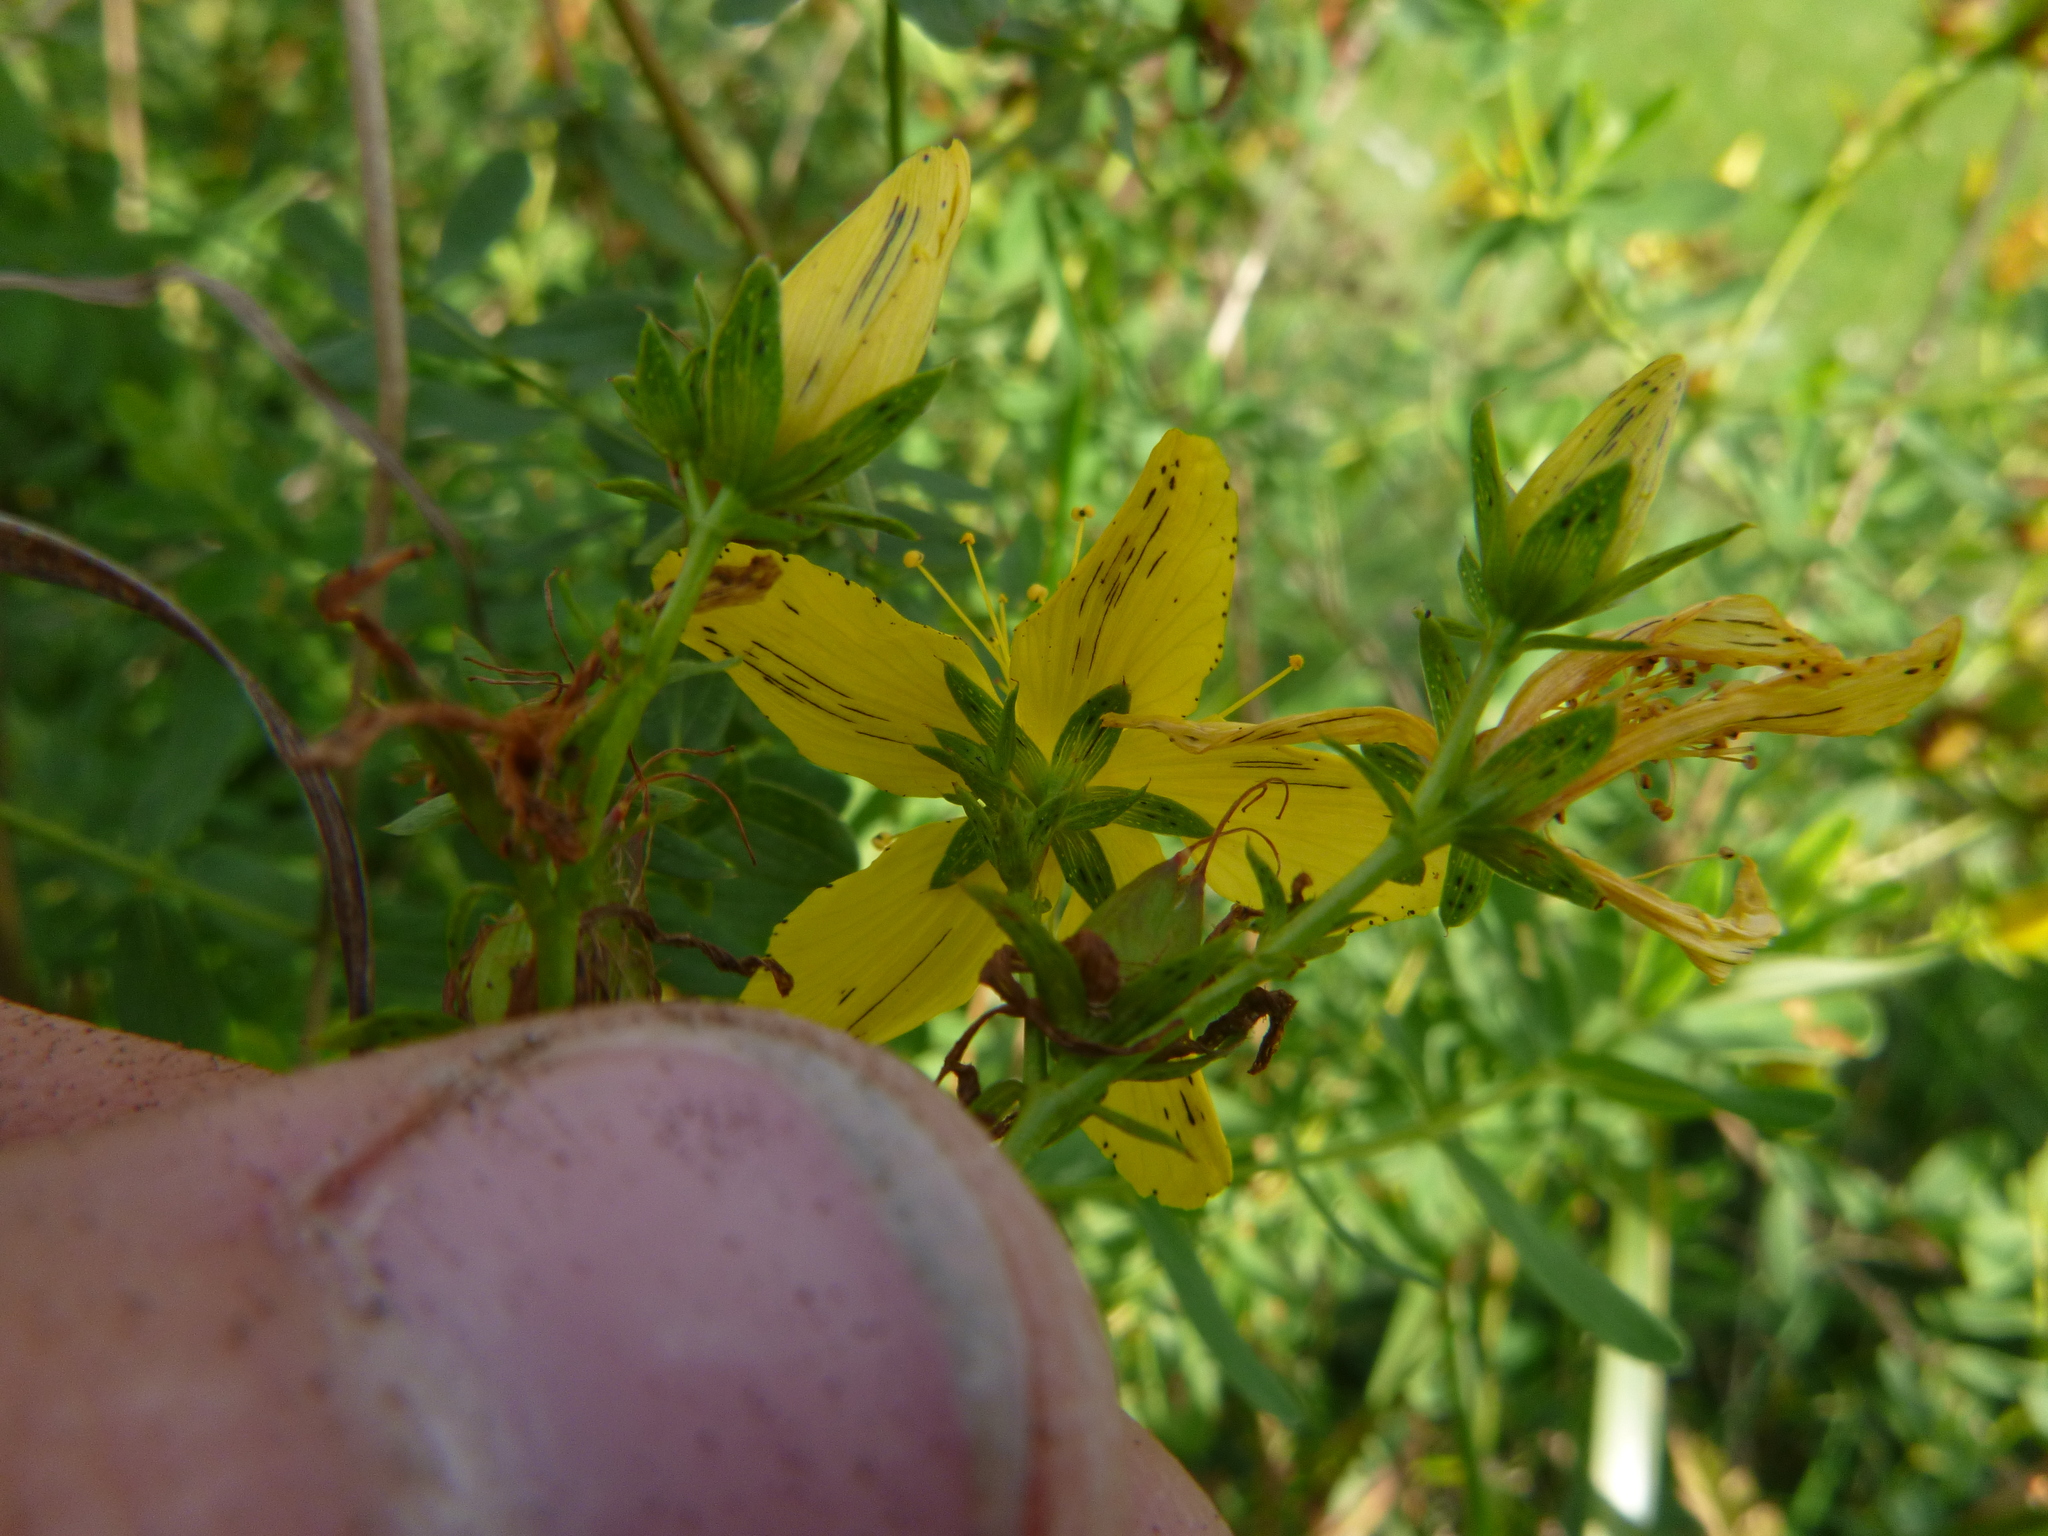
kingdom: Plantae
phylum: Tracheophyta
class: Magnoliopsida
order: Malpighiales
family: Hypericaceae
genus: Hypericum
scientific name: Hypericum desetangsii
